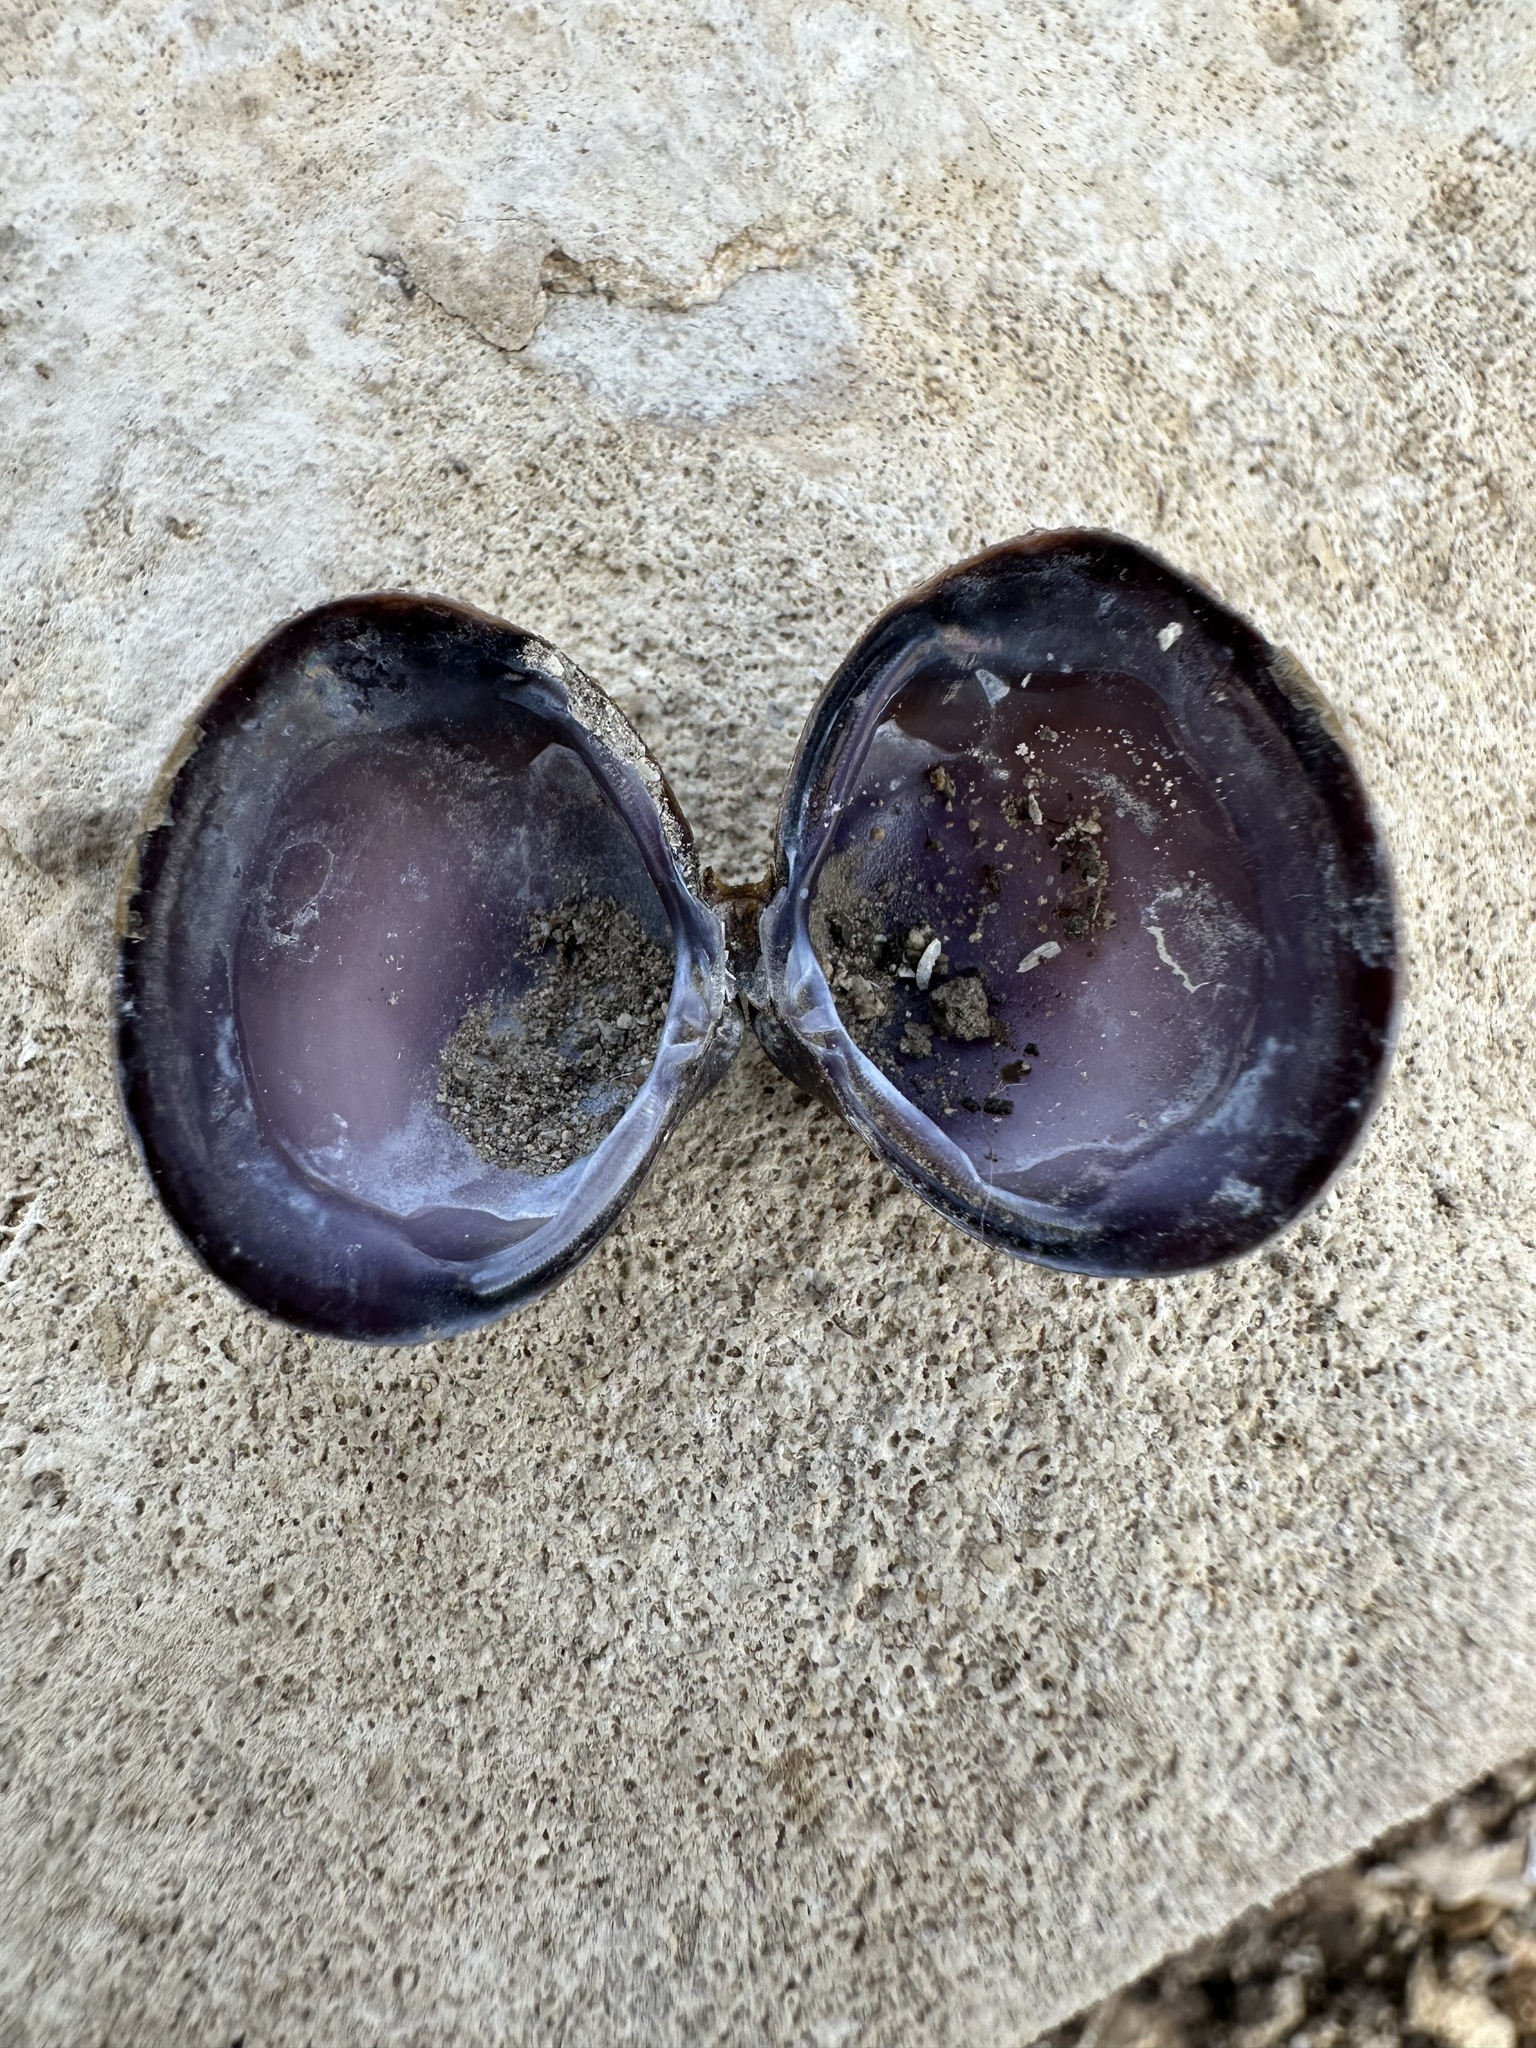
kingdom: Animalia
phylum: Mollusca
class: Bivalvia
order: Venerida
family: Cyrenidae
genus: Corbicula
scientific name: Corbicula largillierti
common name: Purple asian clam
